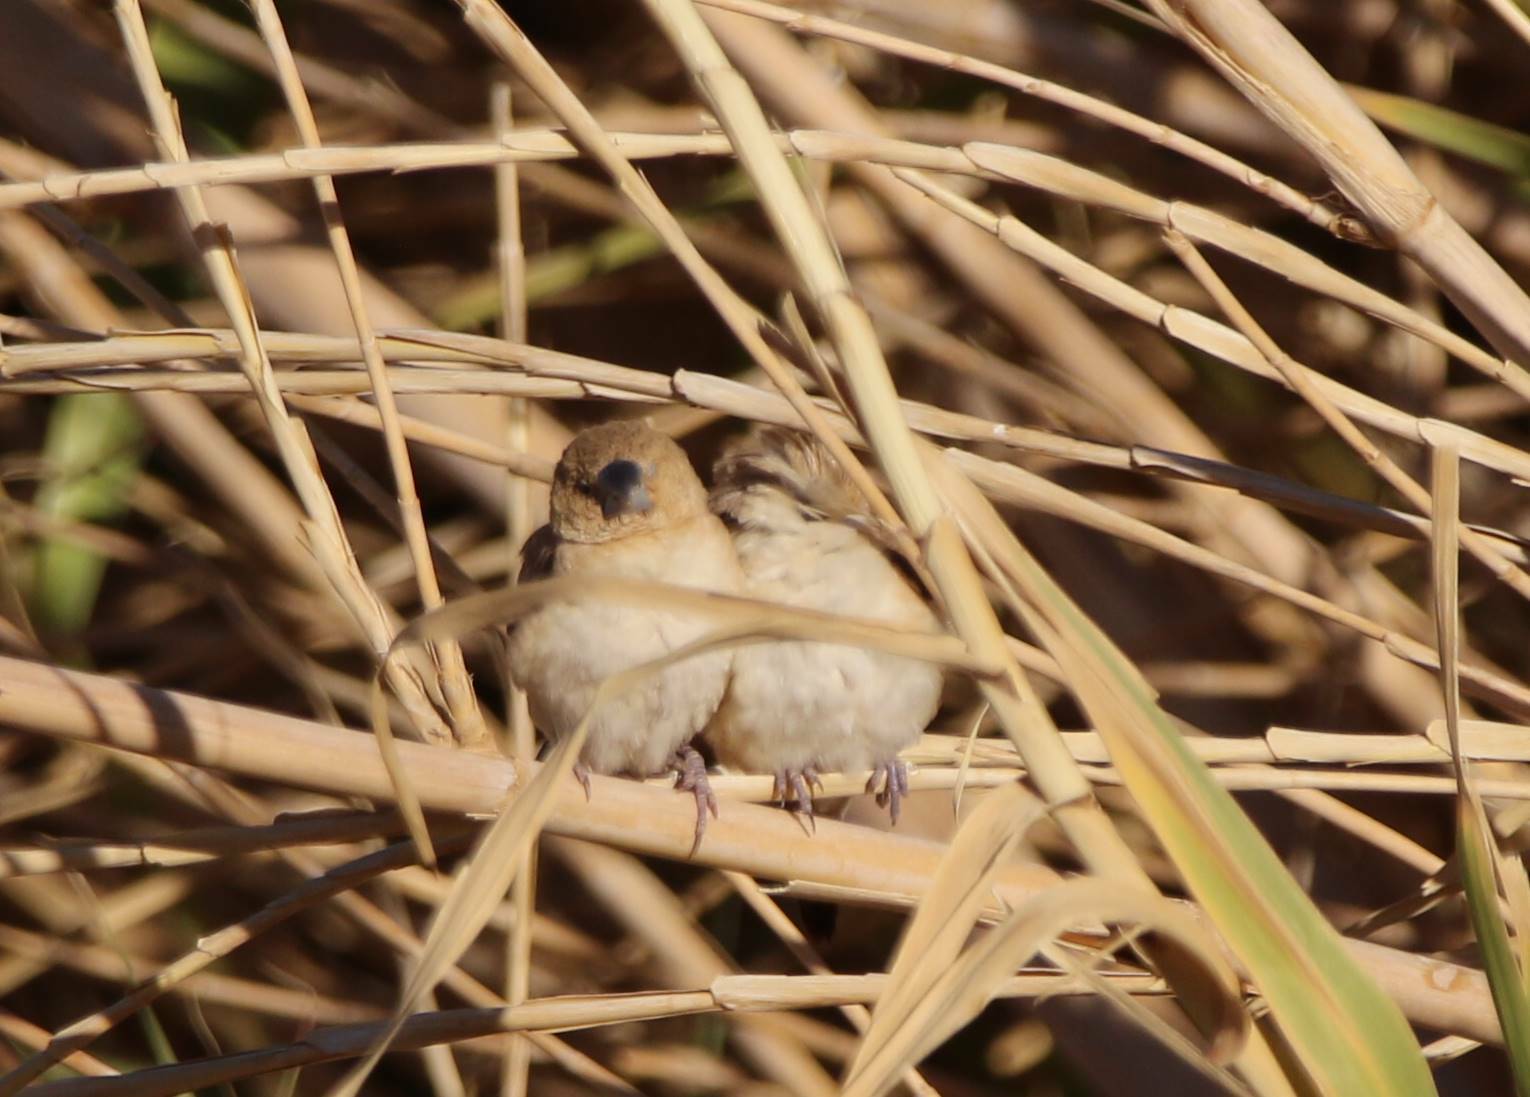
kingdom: Animalia
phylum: Chordata
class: Aves
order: Passeriformes
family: Estrildidae
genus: Euodice
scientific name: Euodice cantans
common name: African silverbill
